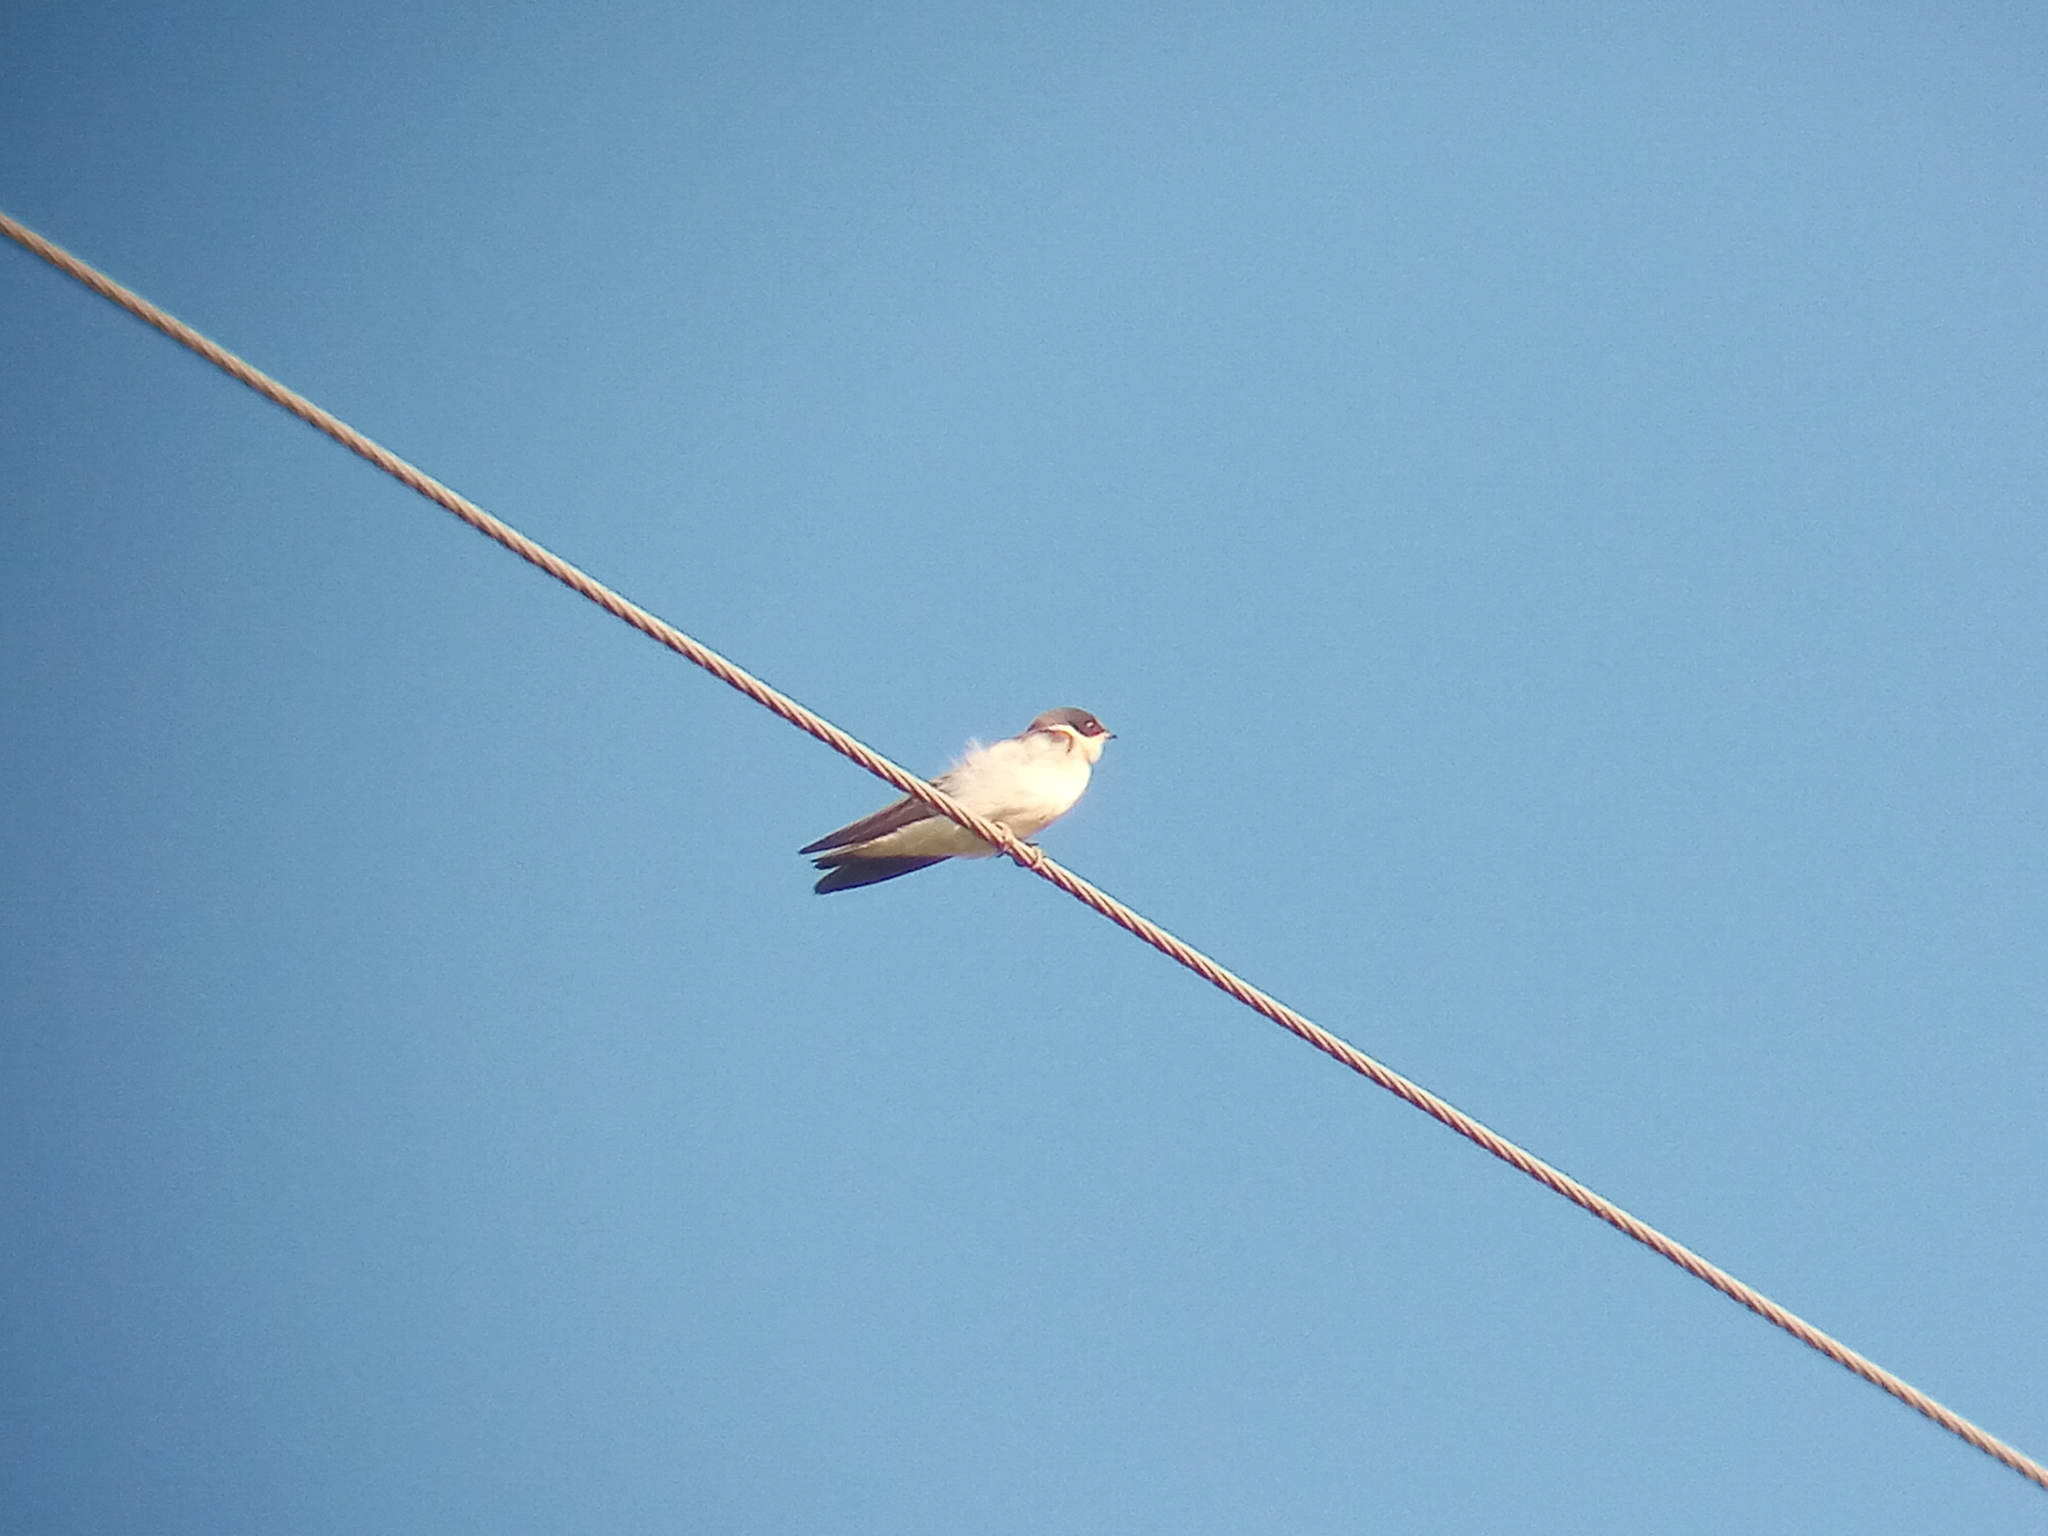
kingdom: Animalia
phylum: Chordata
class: Aves
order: Passeriformes
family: Hirundinidae
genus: Tachycineta
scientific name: Tachycineta leucorrhoa
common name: White-rumped swallow
